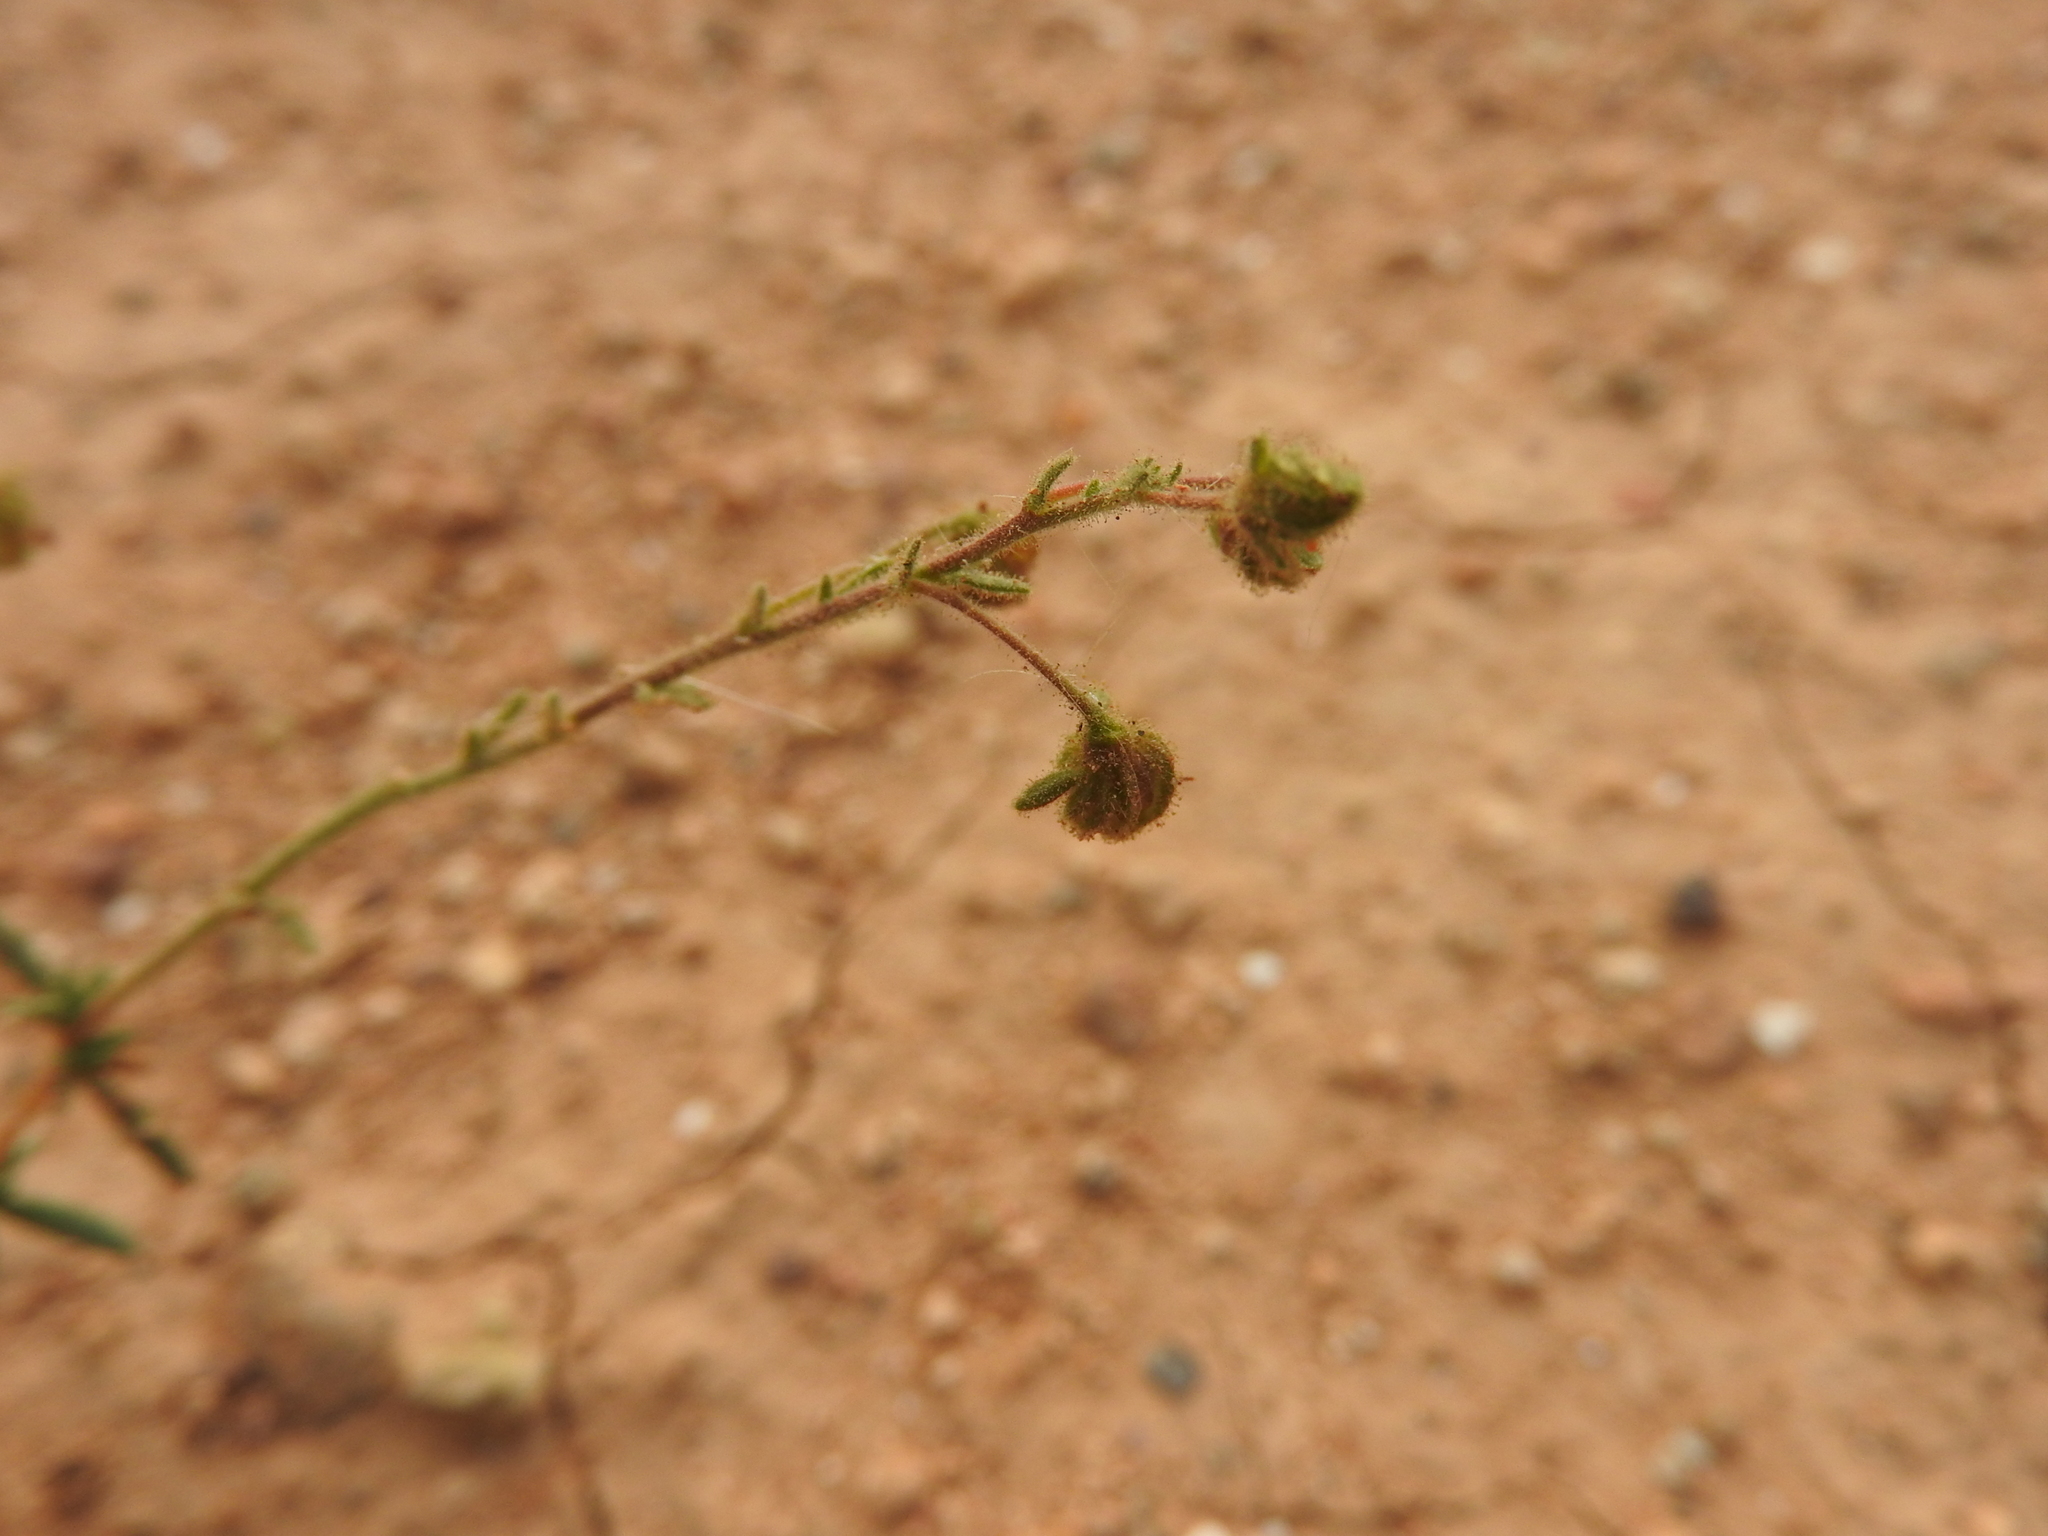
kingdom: Plantae
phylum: Tracheophyta
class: Magnoliopsida
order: Malvales
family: Cistaceae
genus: Fumana
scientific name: Fumana laevis
